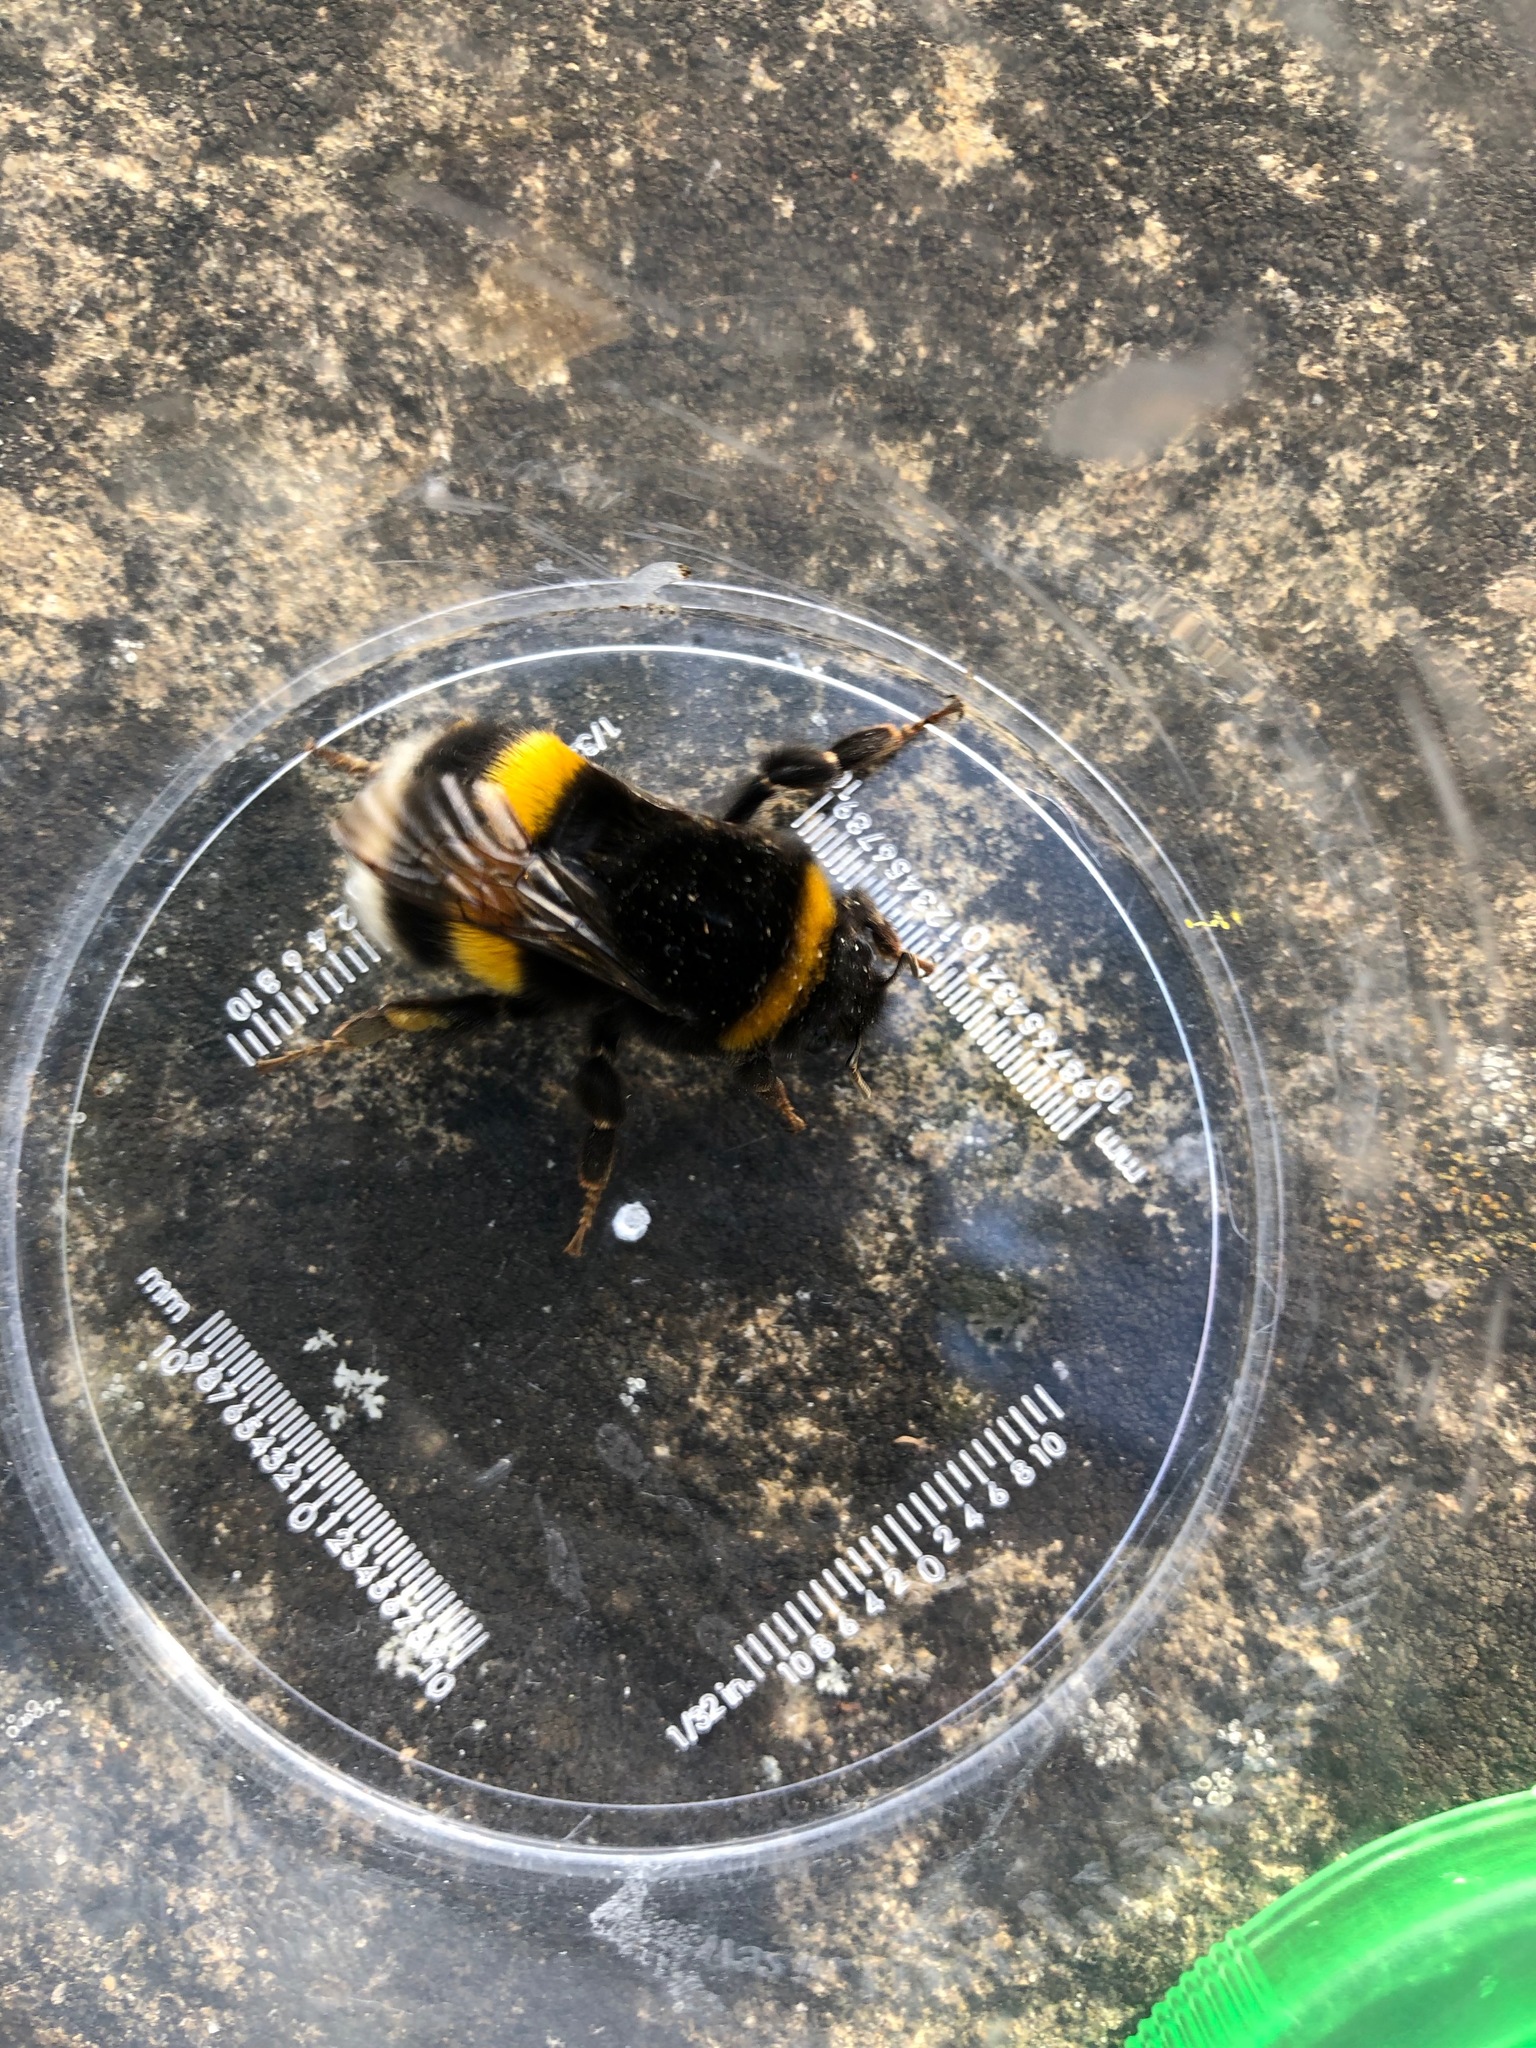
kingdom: Animalia
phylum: Arthropoda
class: Insecta
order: Hymenoptera
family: Apidae
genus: Bombus
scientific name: Bombus terrestris
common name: Buff-tailed bumblebee
